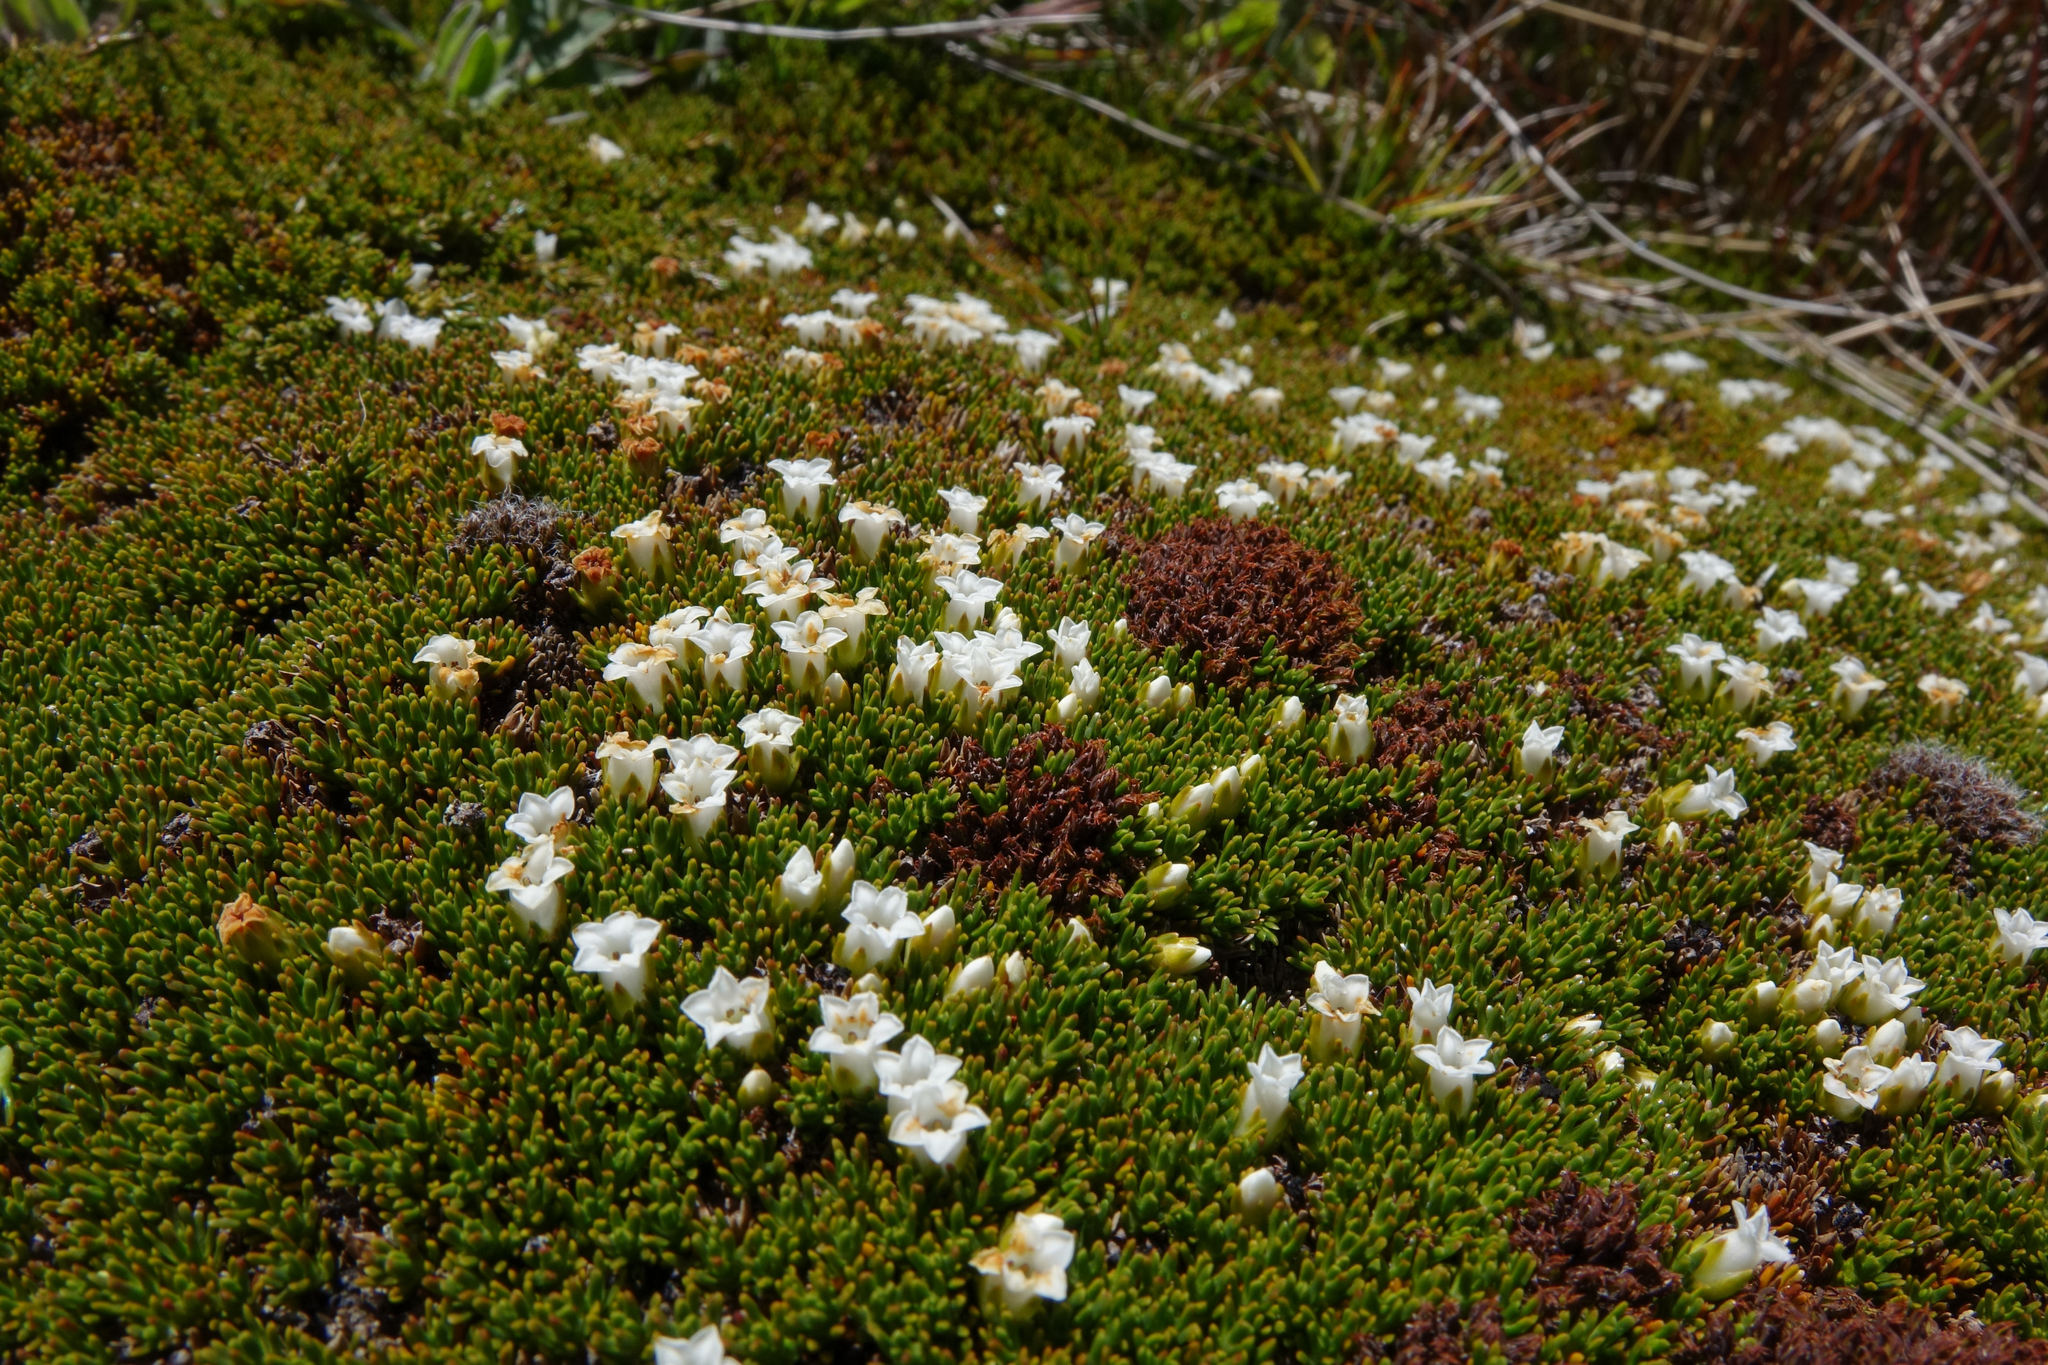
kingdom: Plantae
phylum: Tracheophyta
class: Magnoliopsida
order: Ericales
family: Ericaceae
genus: Dracophyllum
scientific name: Dracophyllum muscoides
